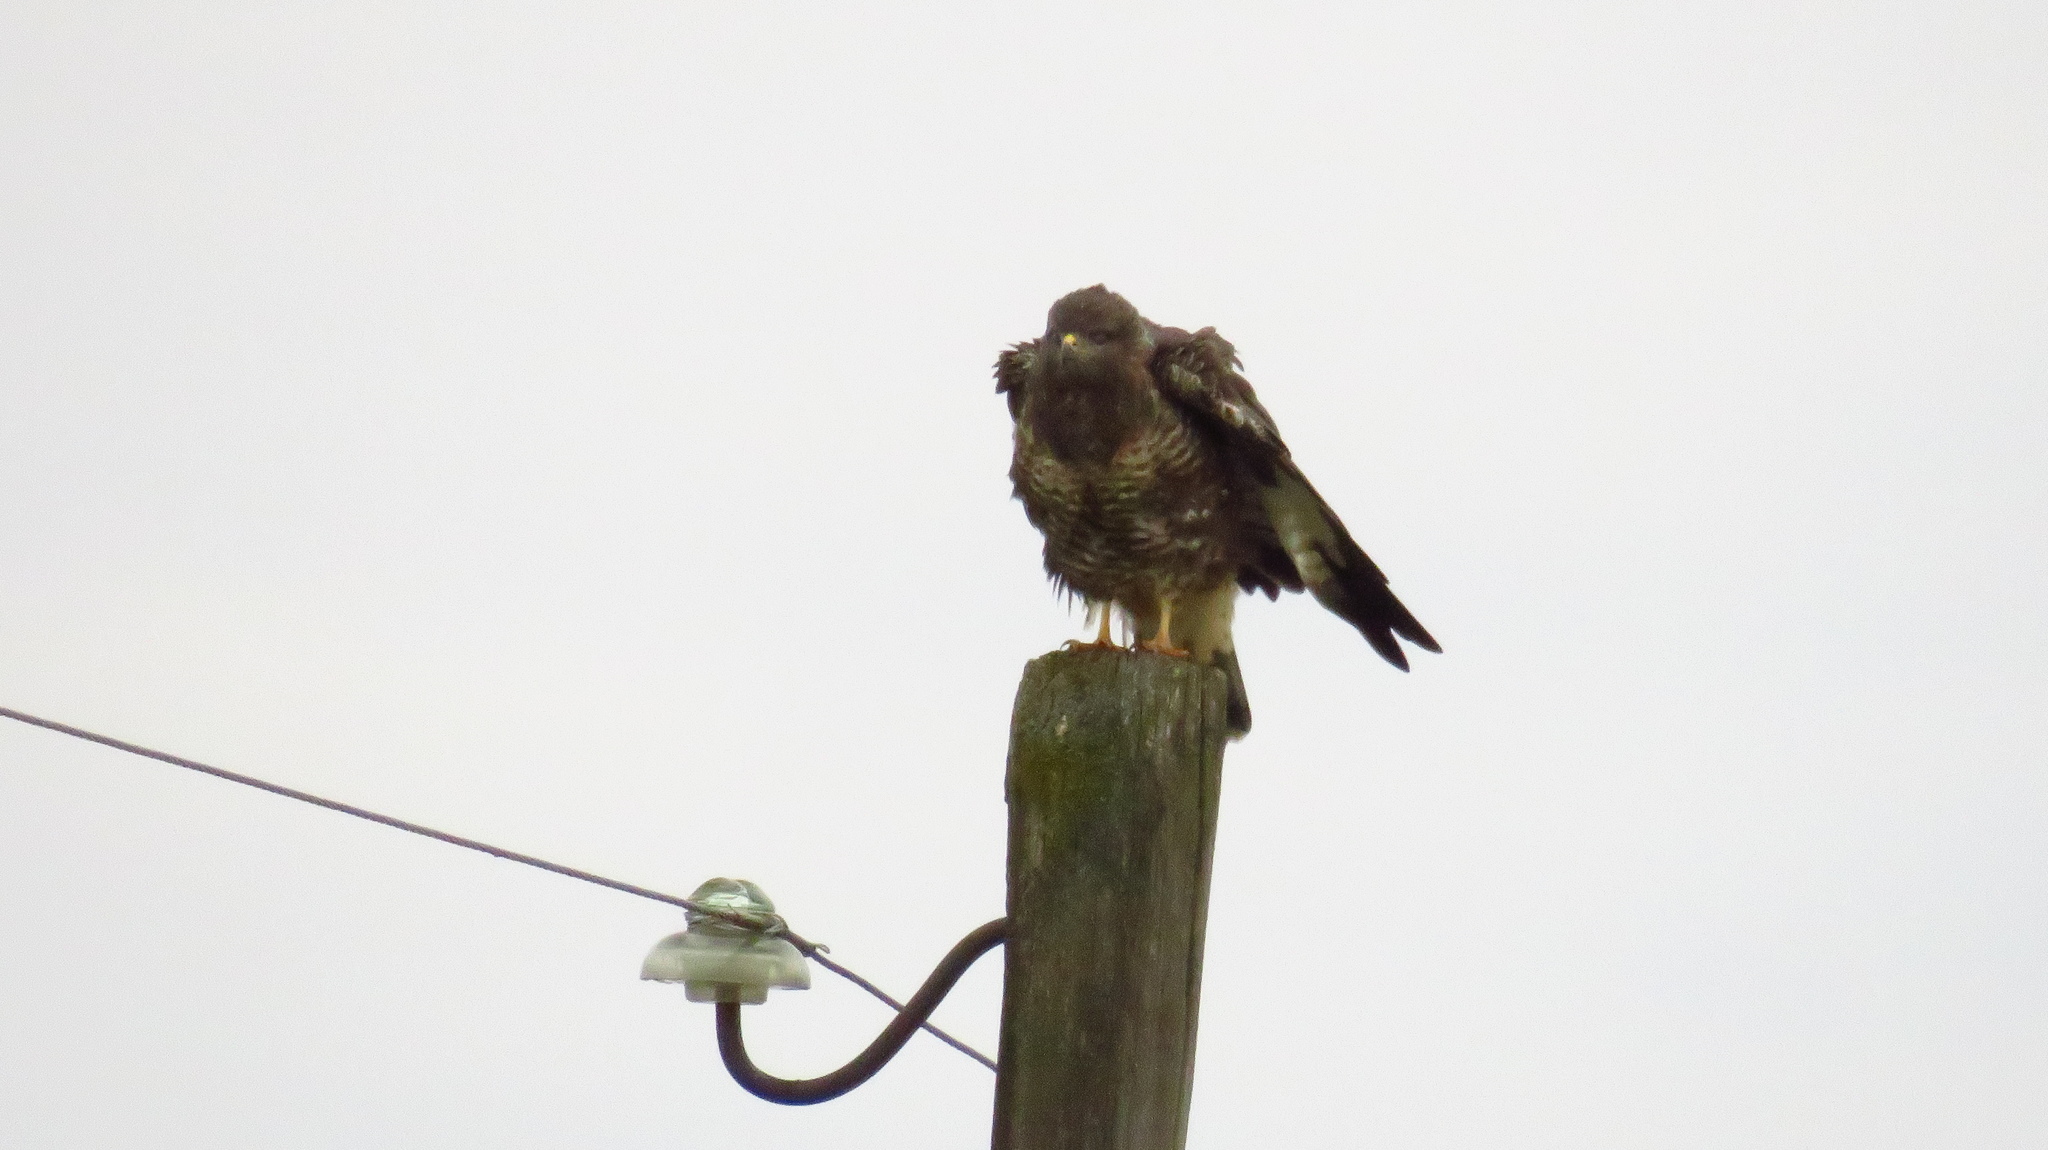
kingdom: Animalia
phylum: Chordata
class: Aves
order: Accipitriformes
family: Accipitridae
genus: Buteo
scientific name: Buteo buteo
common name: Common buzzard
